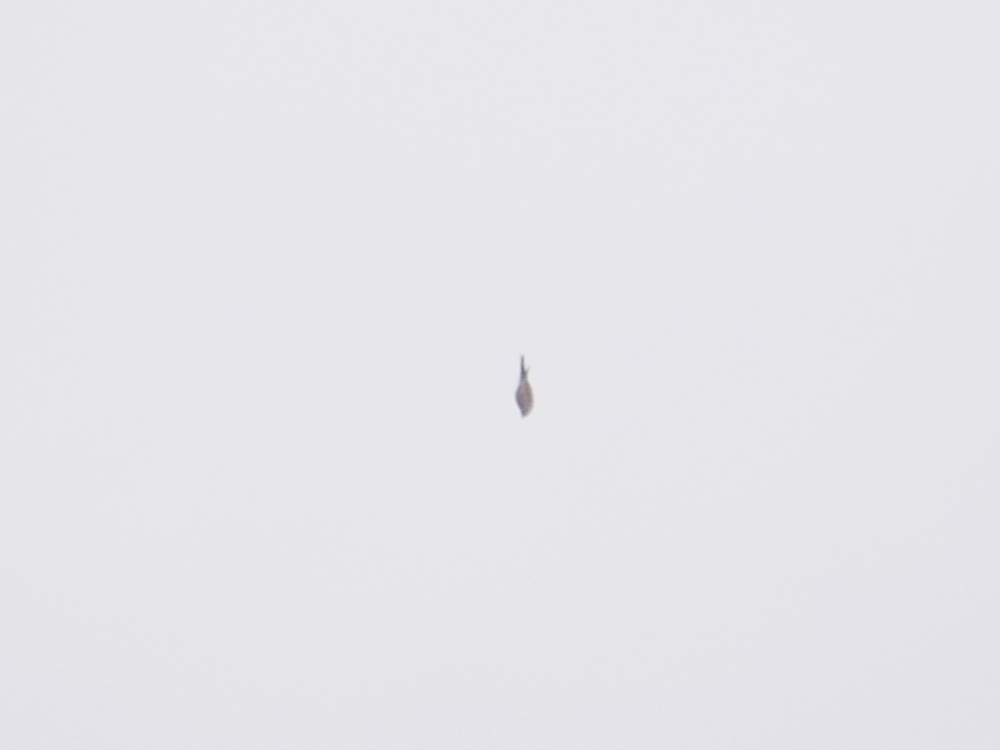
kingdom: Animalia
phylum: Chordata
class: Aves
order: Falconiformes
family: Falconidae
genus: Falco
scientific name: Falco tinnunculus
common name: Common kestrel
